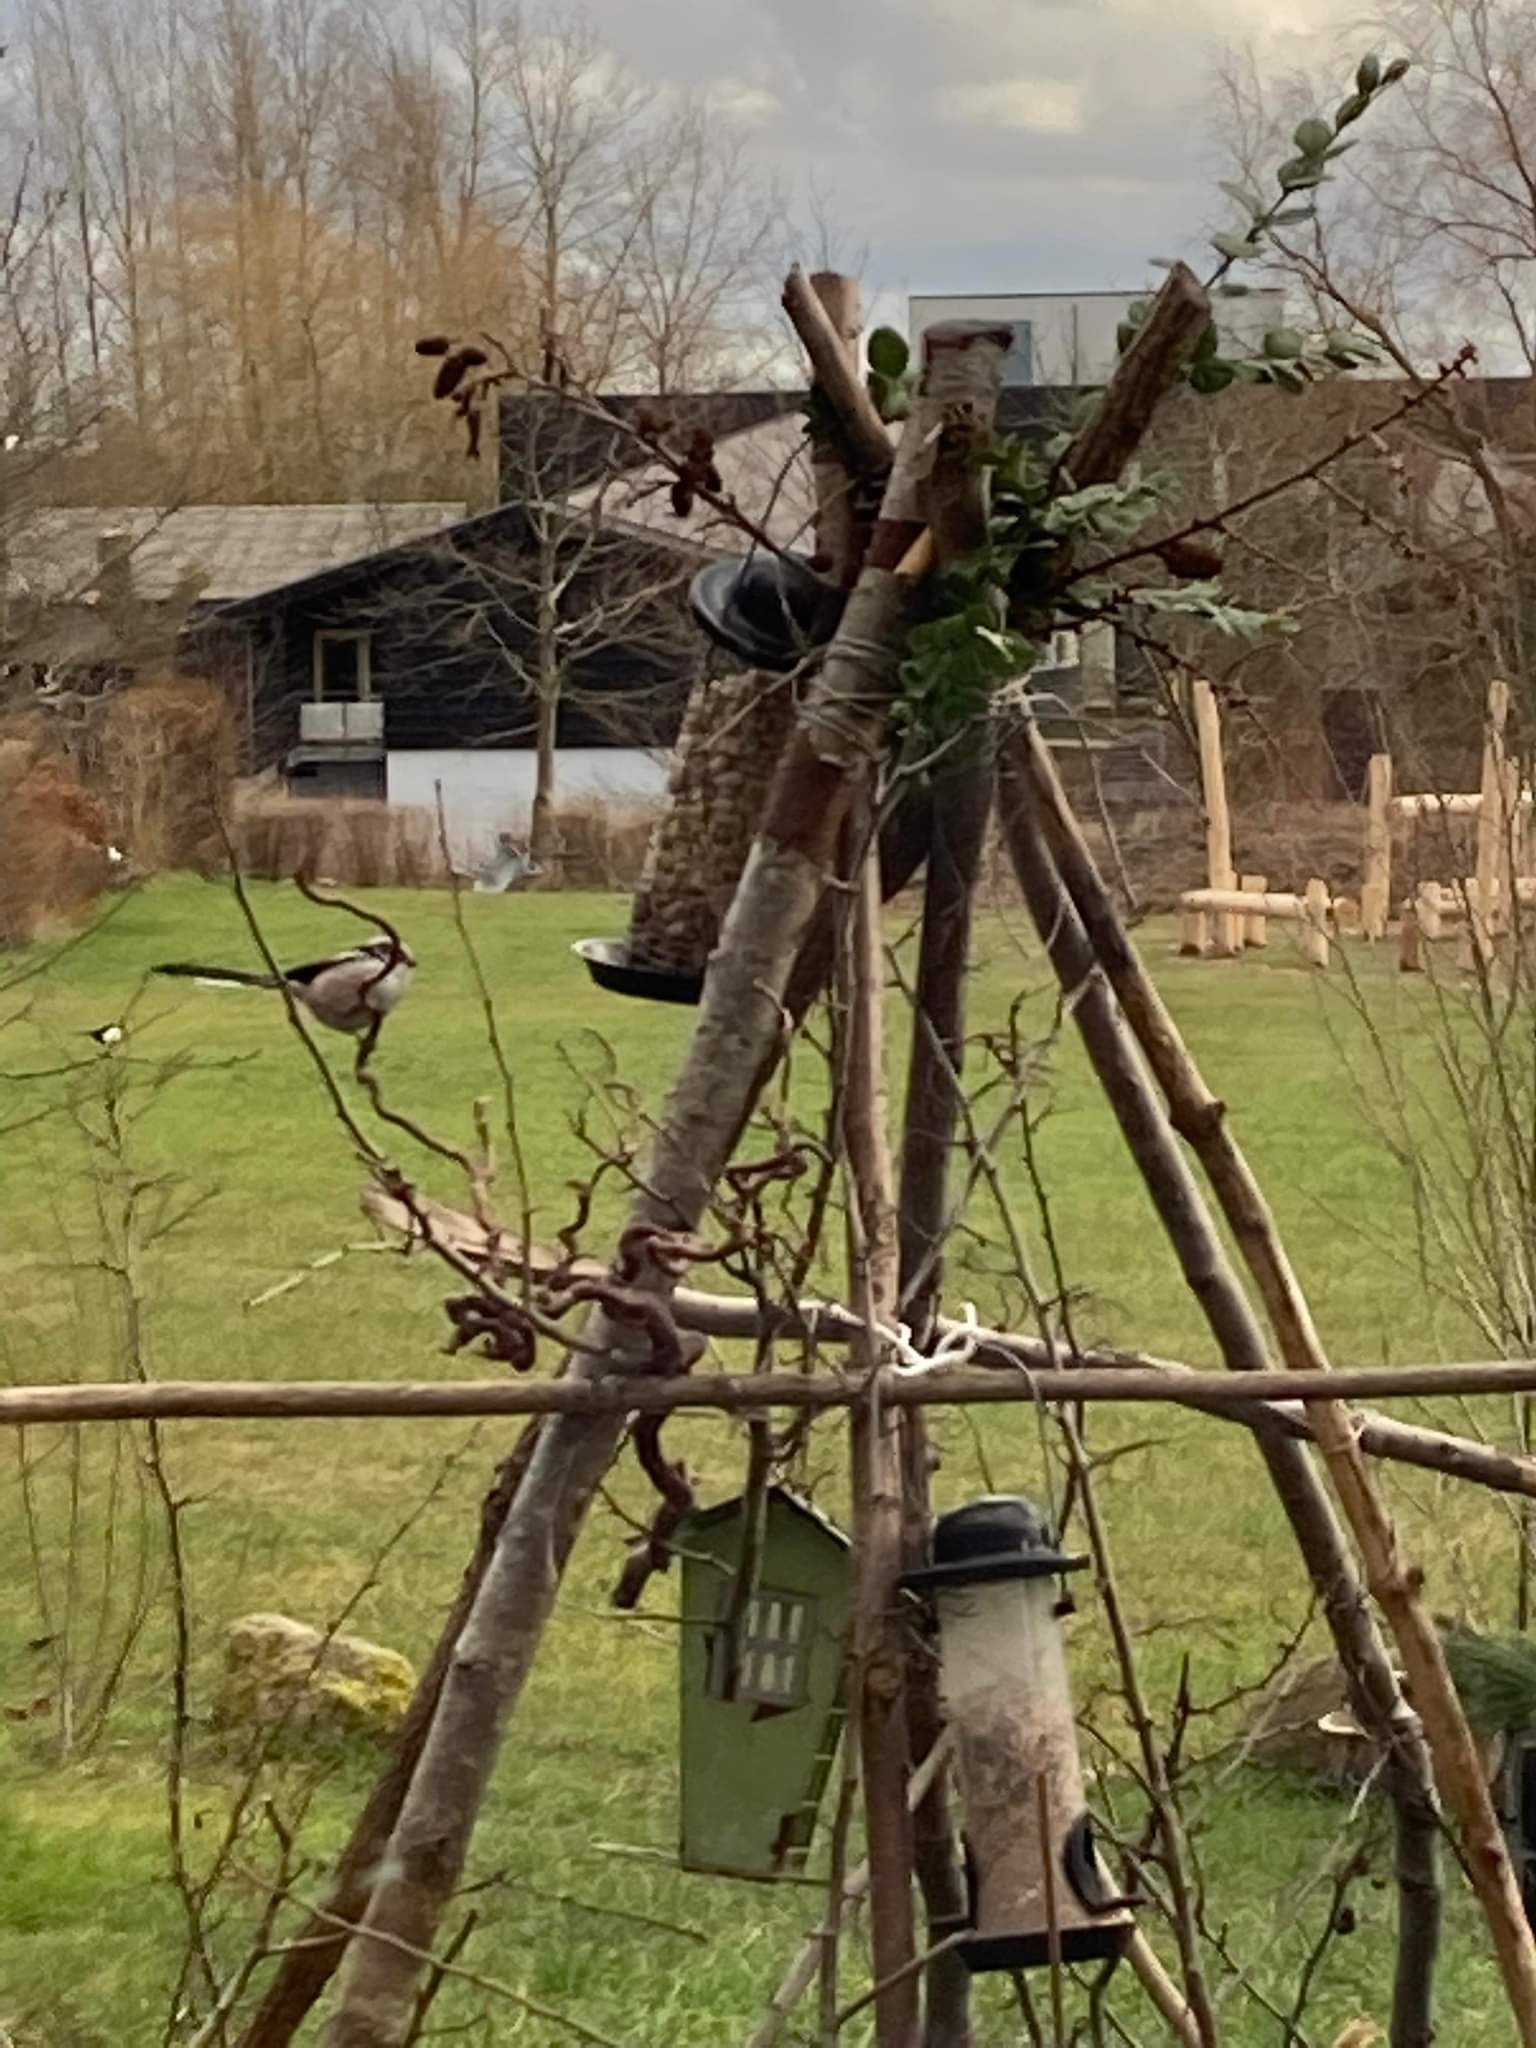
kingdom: Animalia
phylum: Chordata
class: Aves
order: Passeriformes
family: Aegithalidae
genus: Aegithalos
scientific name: Aegithalos caudatus
